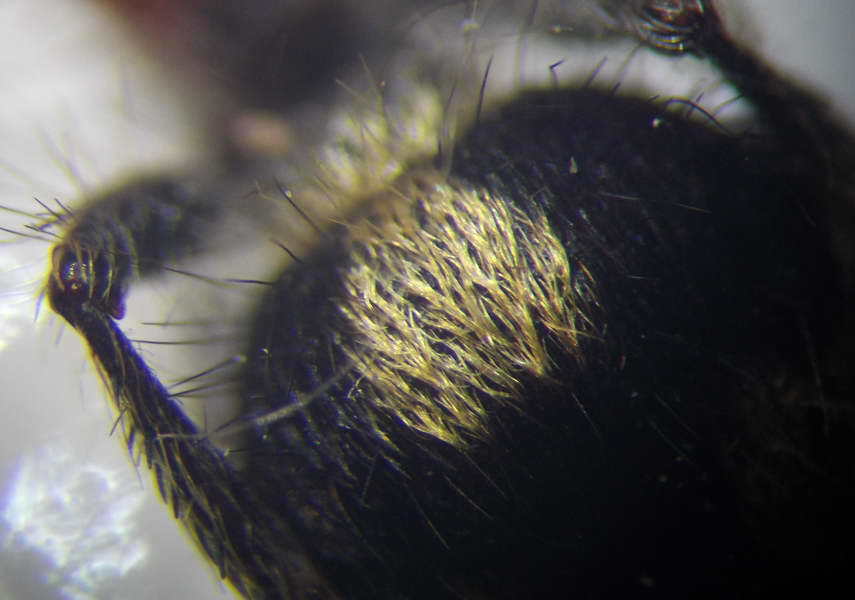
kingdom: Animalia
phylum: Arthropoda
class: Insecta
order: Hymenoptera
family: Mutillidae
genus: Dasylabris
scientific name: Dasylabris maura
